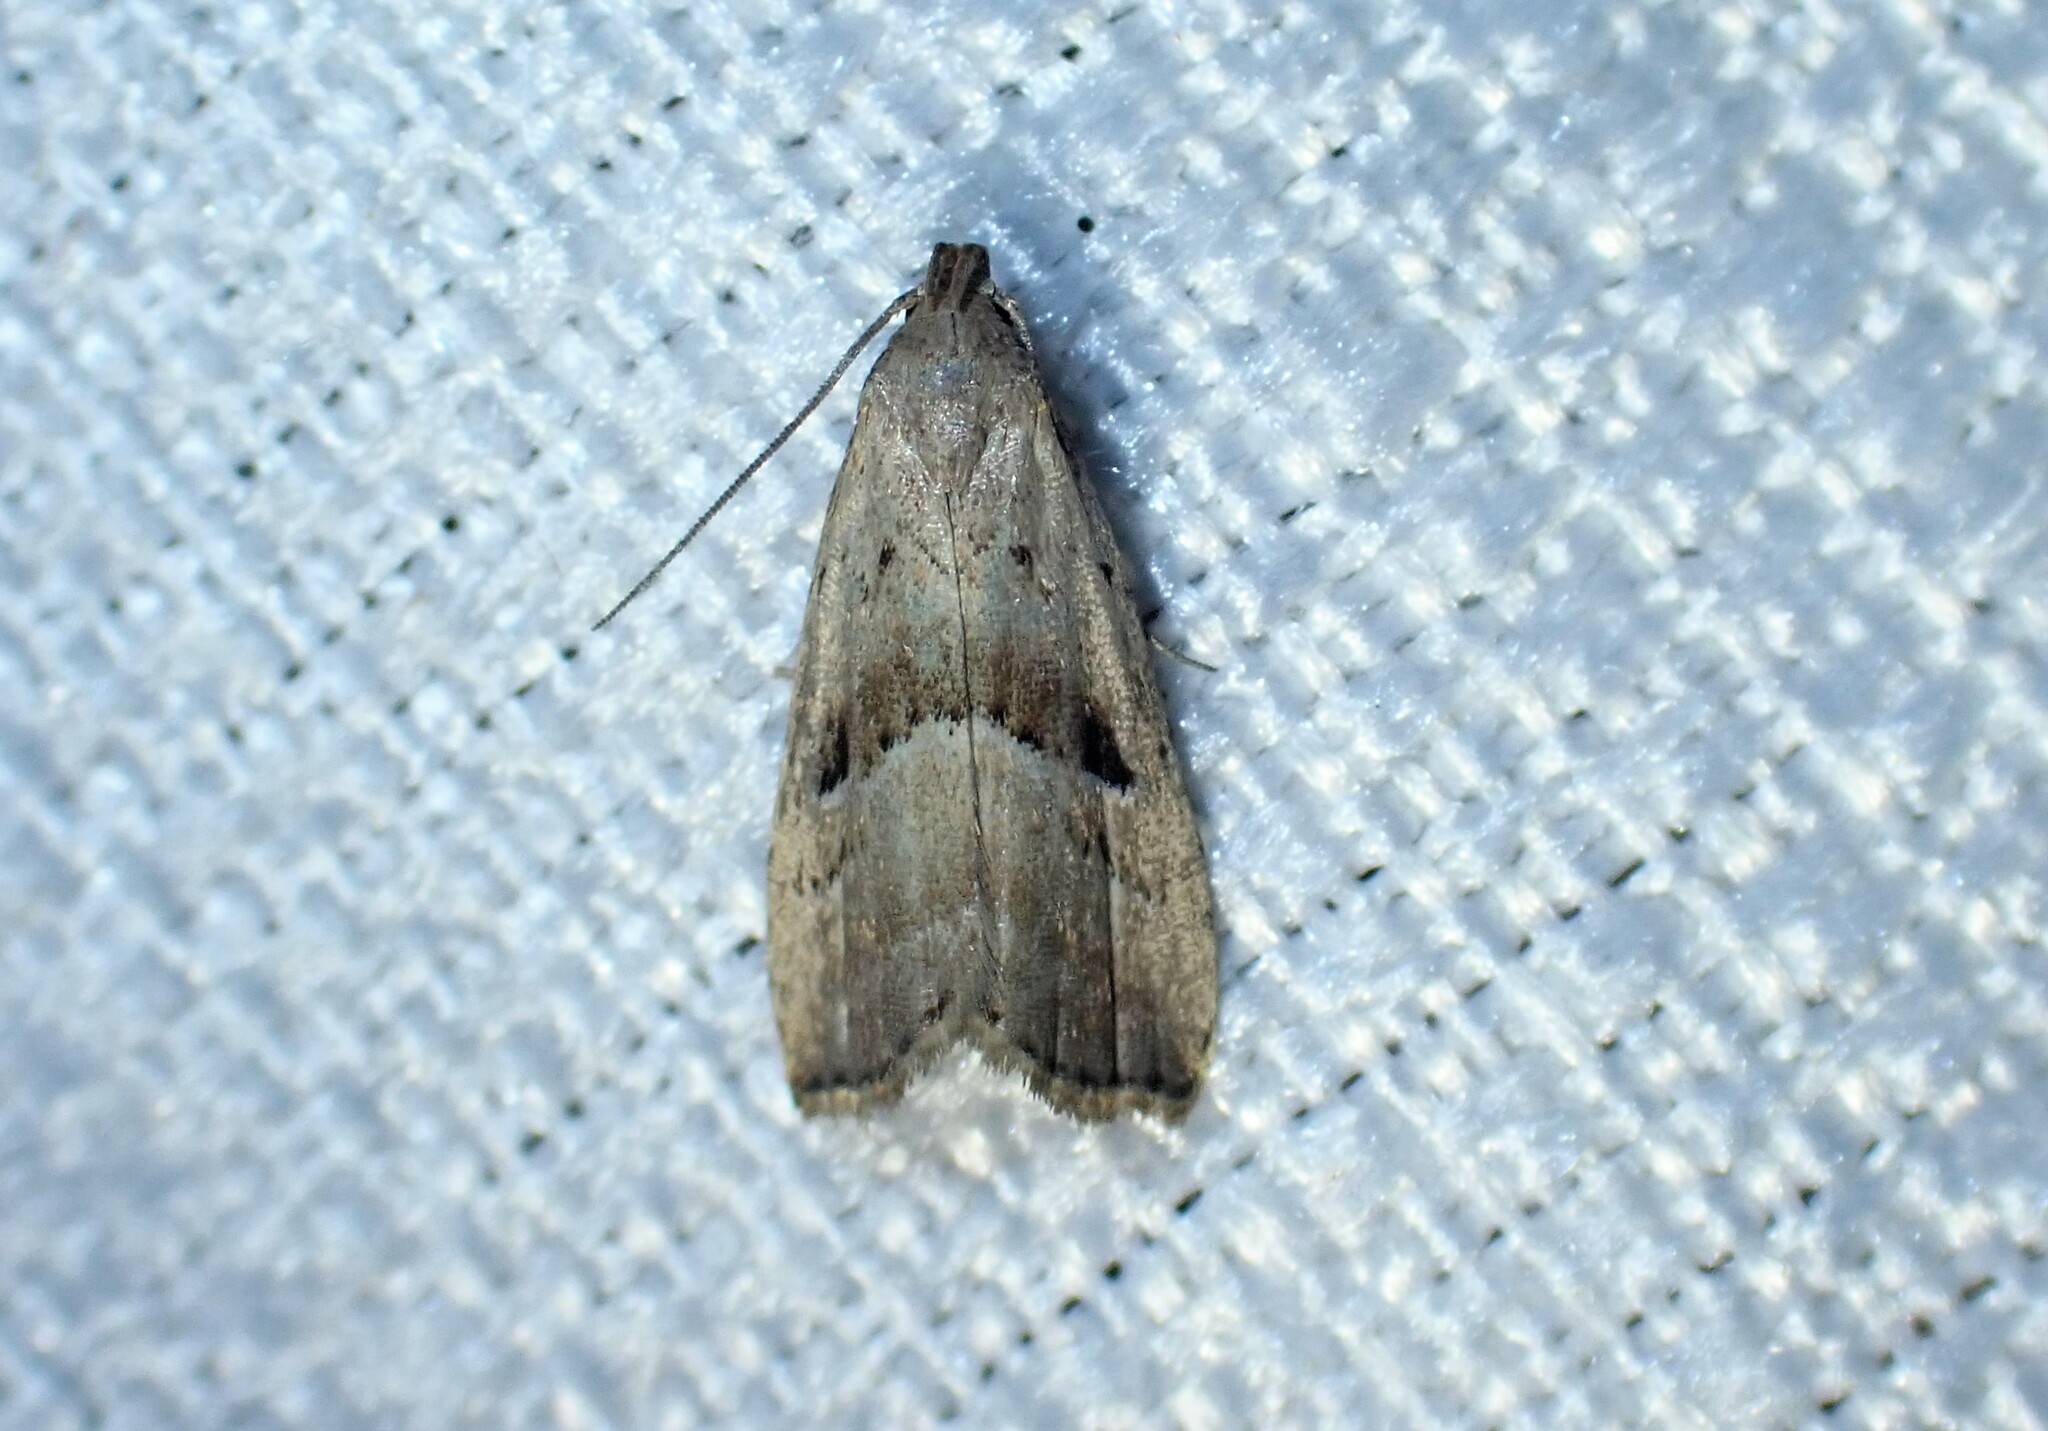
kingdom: Animalia
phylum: Arthropoda
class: Insecta
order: Lepidoptera
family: Erebidae
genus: Hypenodes
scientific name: Hypenodes fractilinea
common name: Broken-line hypenodes moth
